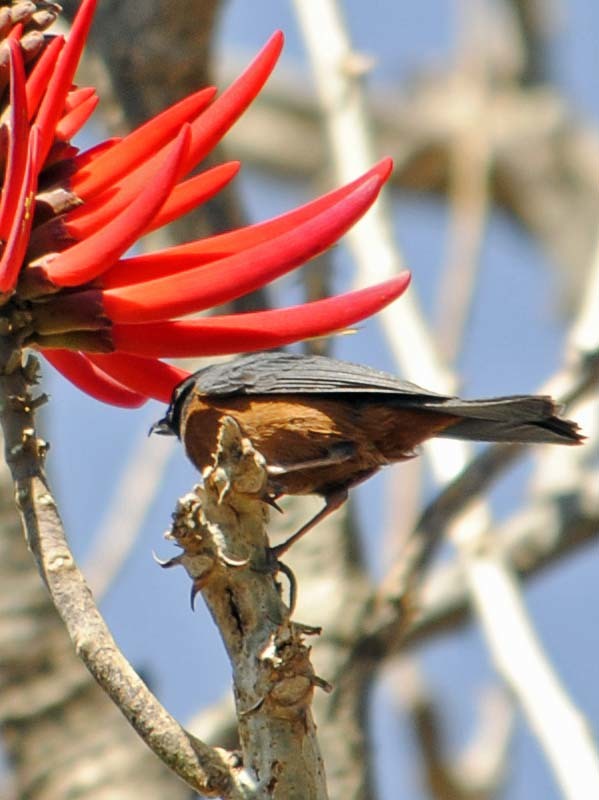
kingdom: Animalia
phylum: Chordata
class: Aves
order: Passeriformes
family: Thraupidae
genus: Diglossa
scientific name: Diglossa baritula
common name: Cinnamon-bellied flowerpiercer
